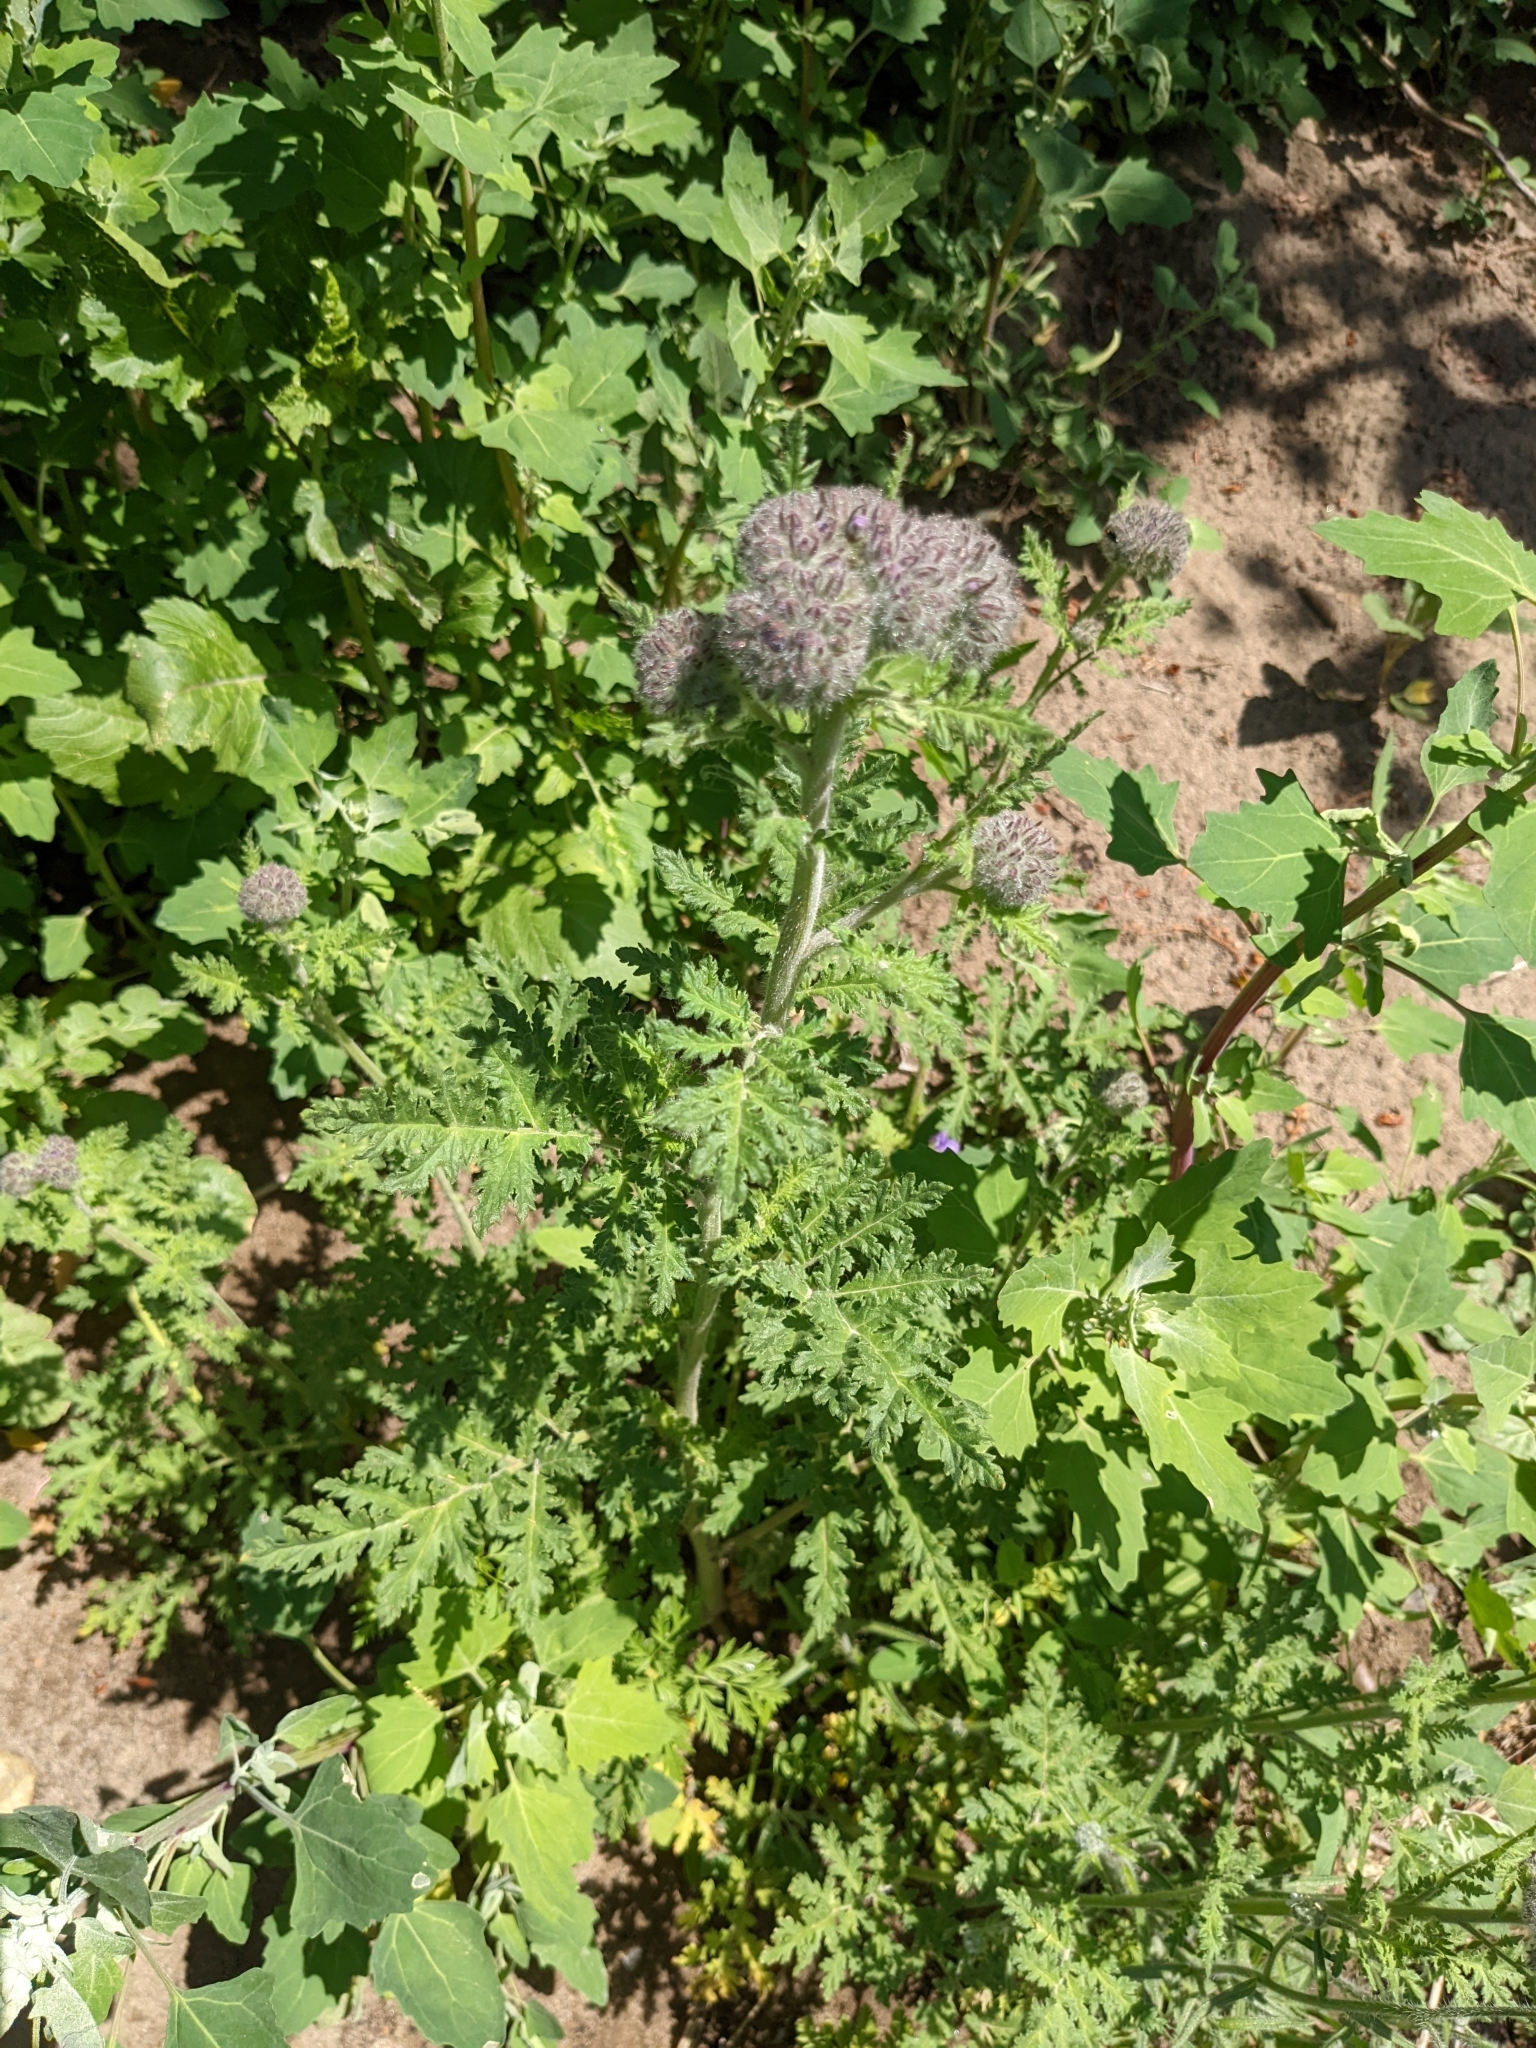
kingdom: Plantae
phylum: Tracheophyta
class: Magnoliopsida
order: Boraginales
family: Hydrophyllaceae
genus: Phacelia
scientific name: Phacelia hubbyi
